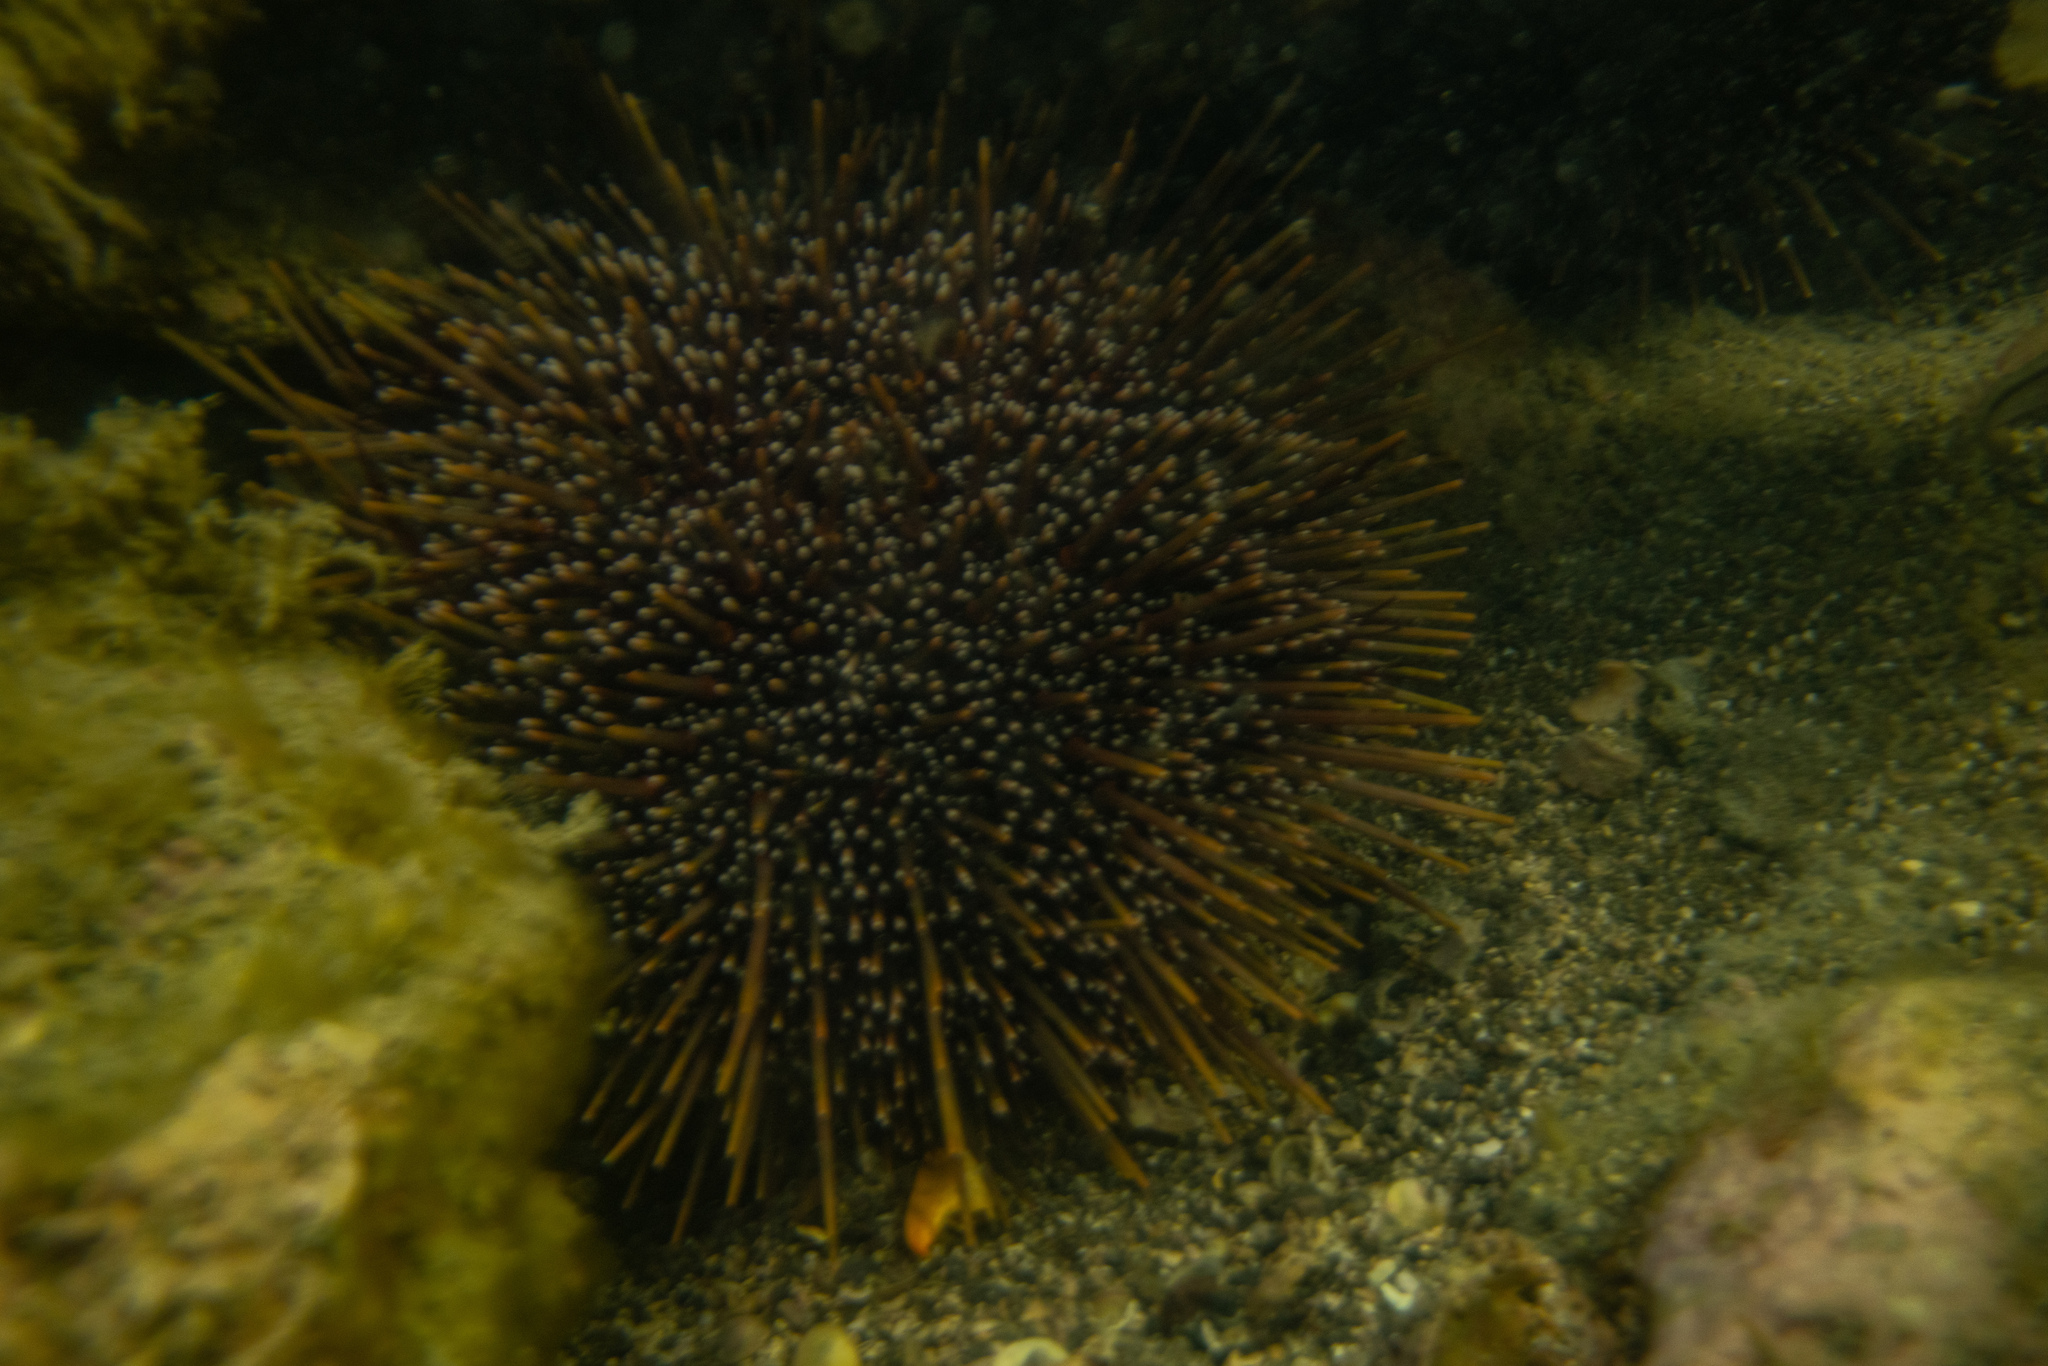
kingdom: Animalia
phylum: Echinodermata
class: Echinoidea
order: Camarodonta
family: Echinometridae
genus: Evechinus
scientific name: Evechinus chloroticus
